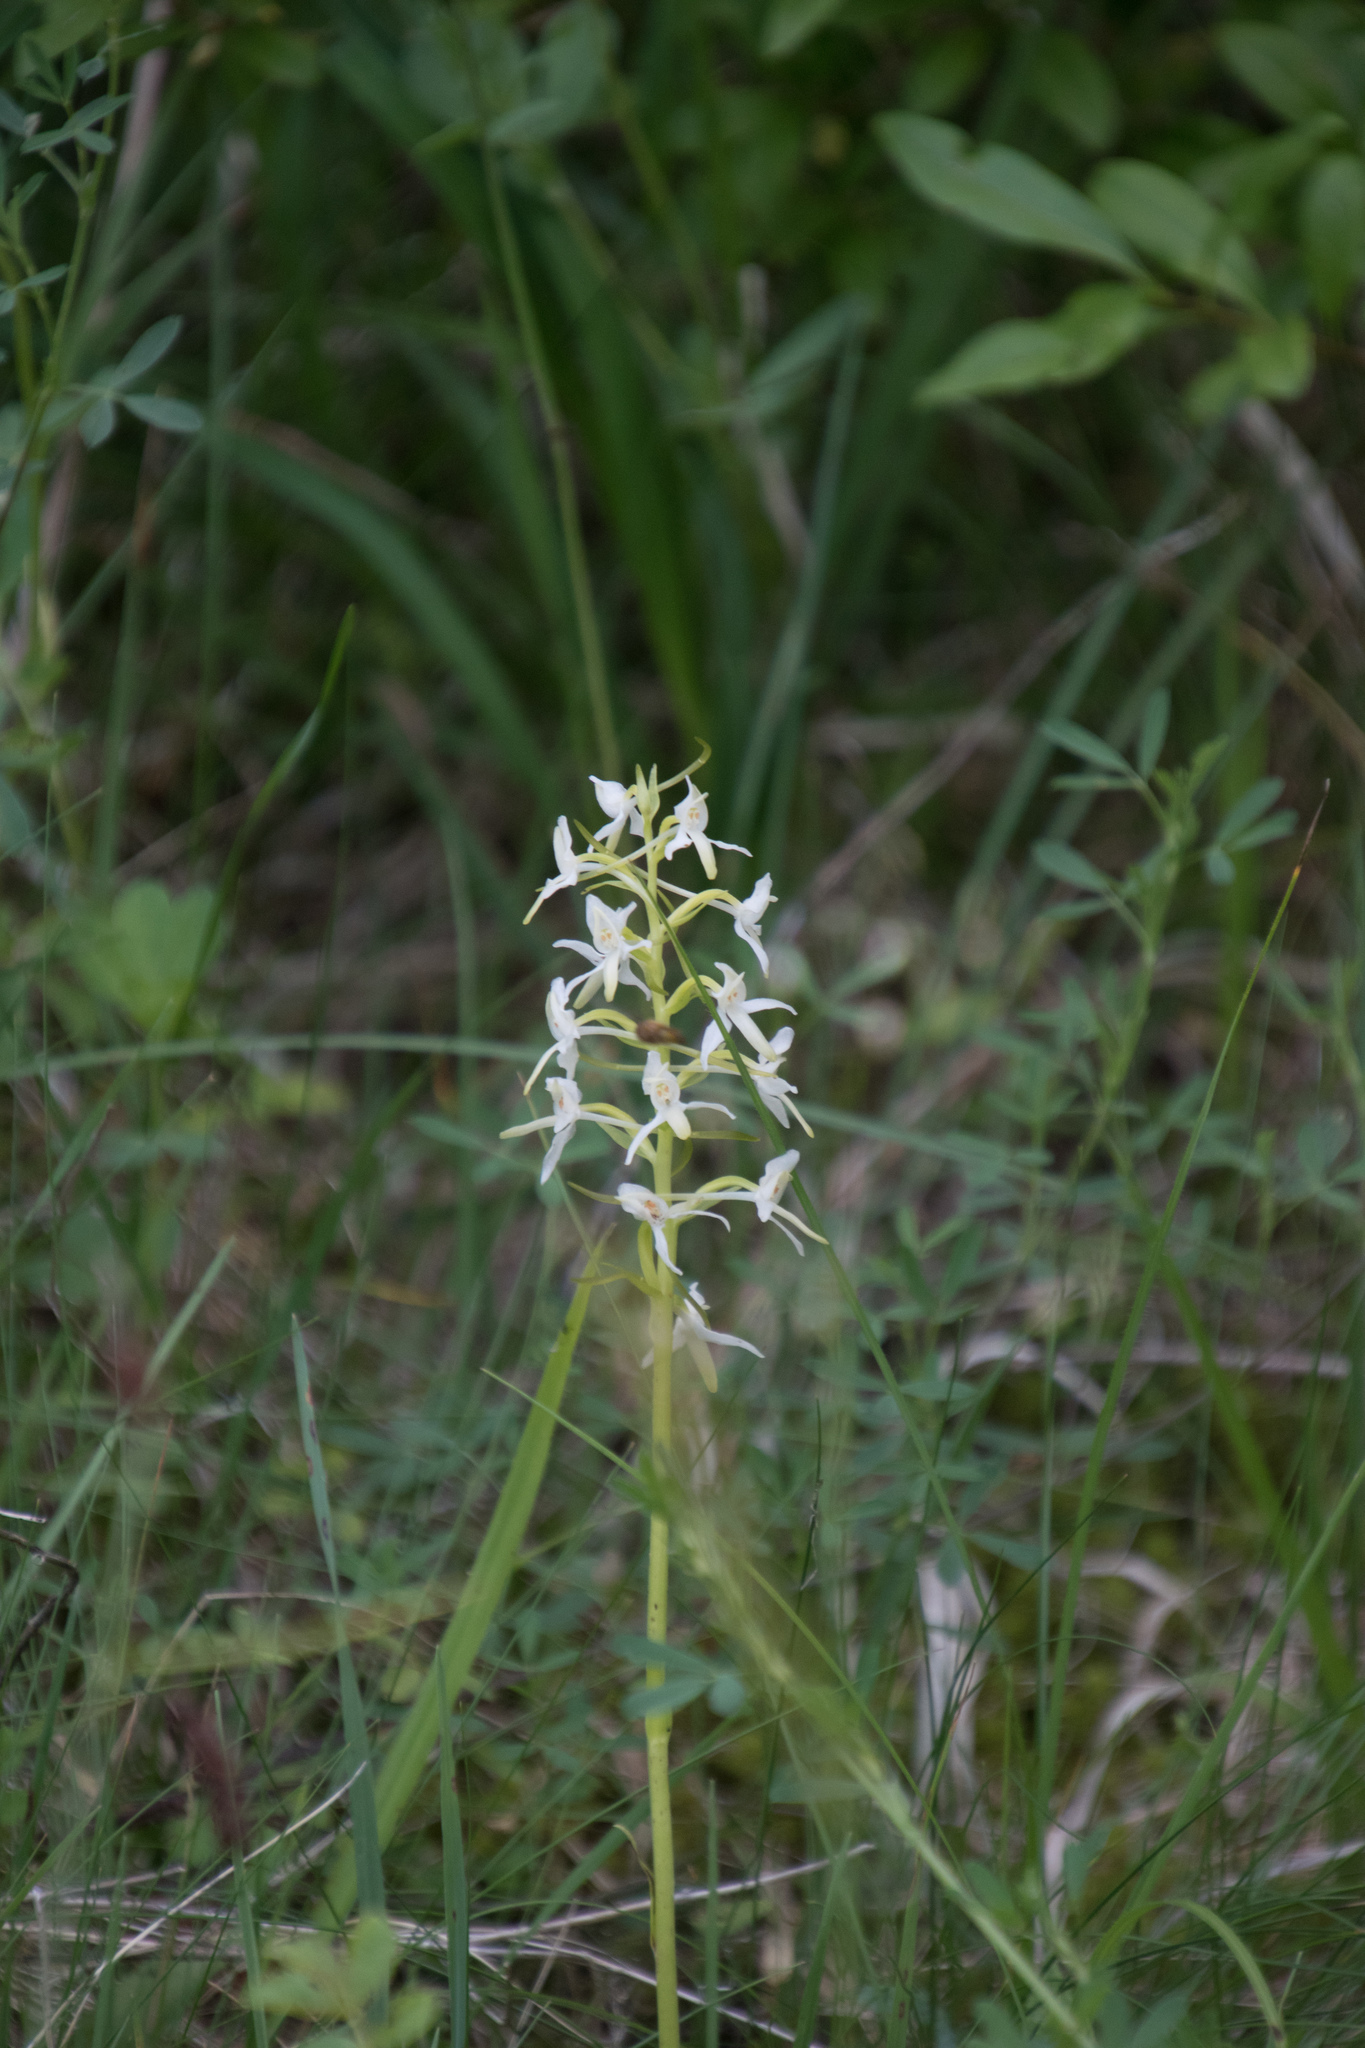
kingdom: Plantae
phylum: Tracheophyta
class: Liliopsida
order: Asparagales
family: Orchidaceae
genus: Platanthera
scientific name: Platanthera bifolia
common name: Lesser butterfly-orchid
